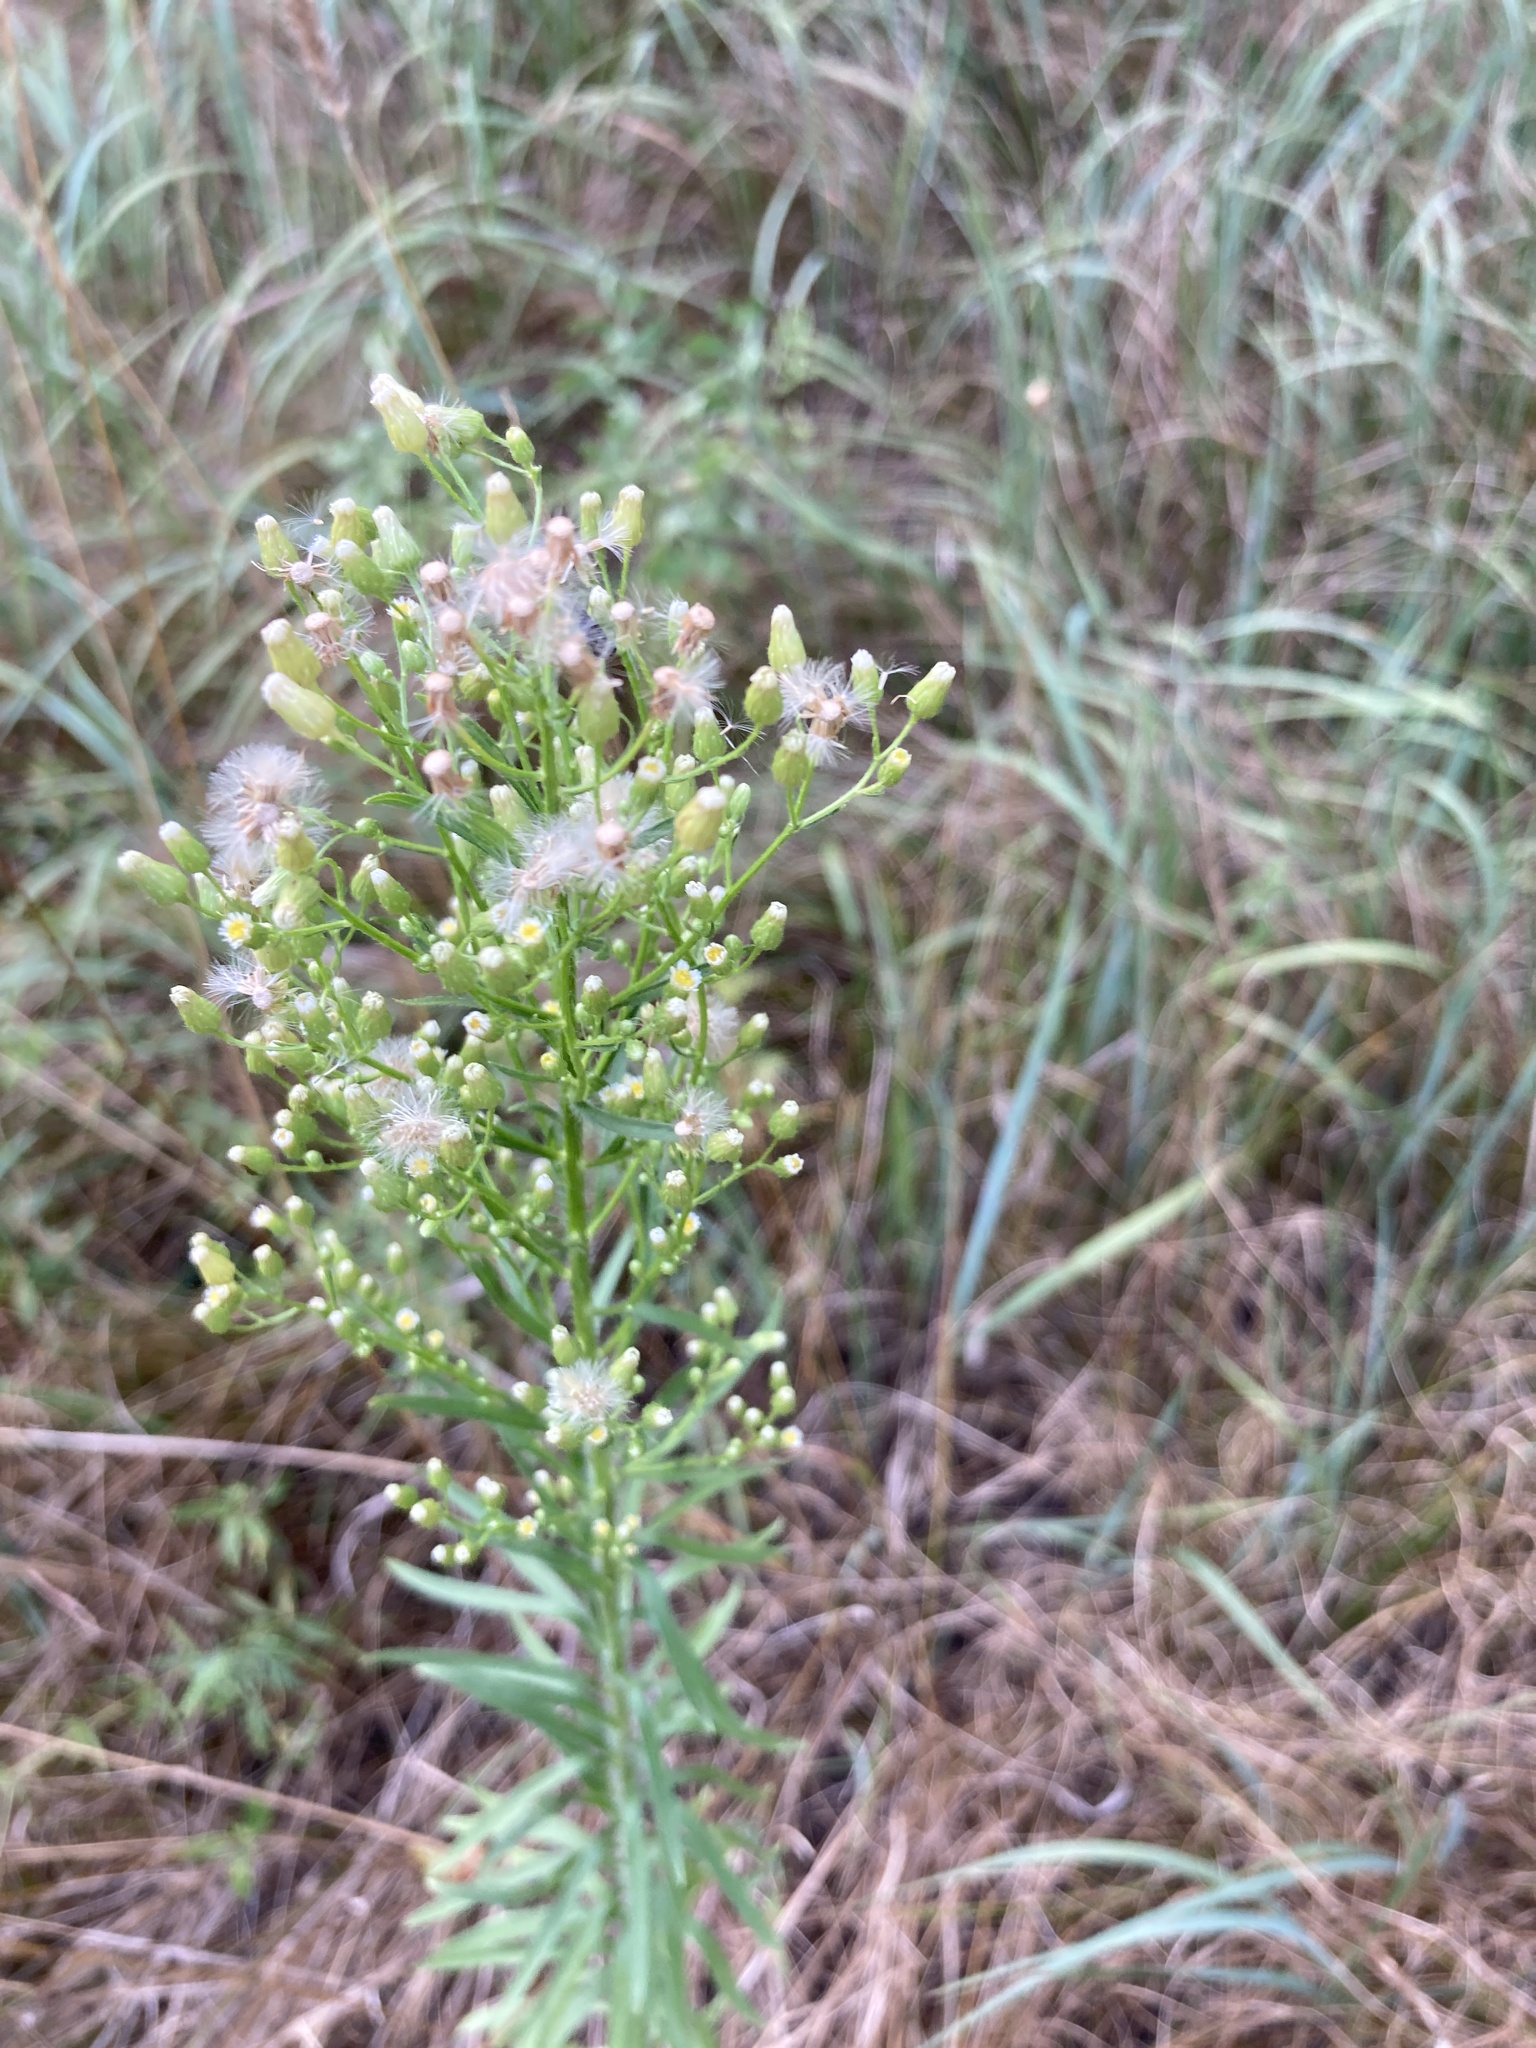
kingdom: Plantae
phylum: Tracheophyta
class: Magnoliopsida
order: Asterales
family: Asteraceae
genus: Erigeron
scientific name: Erigeron canadensis
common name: Canadian fleabane
